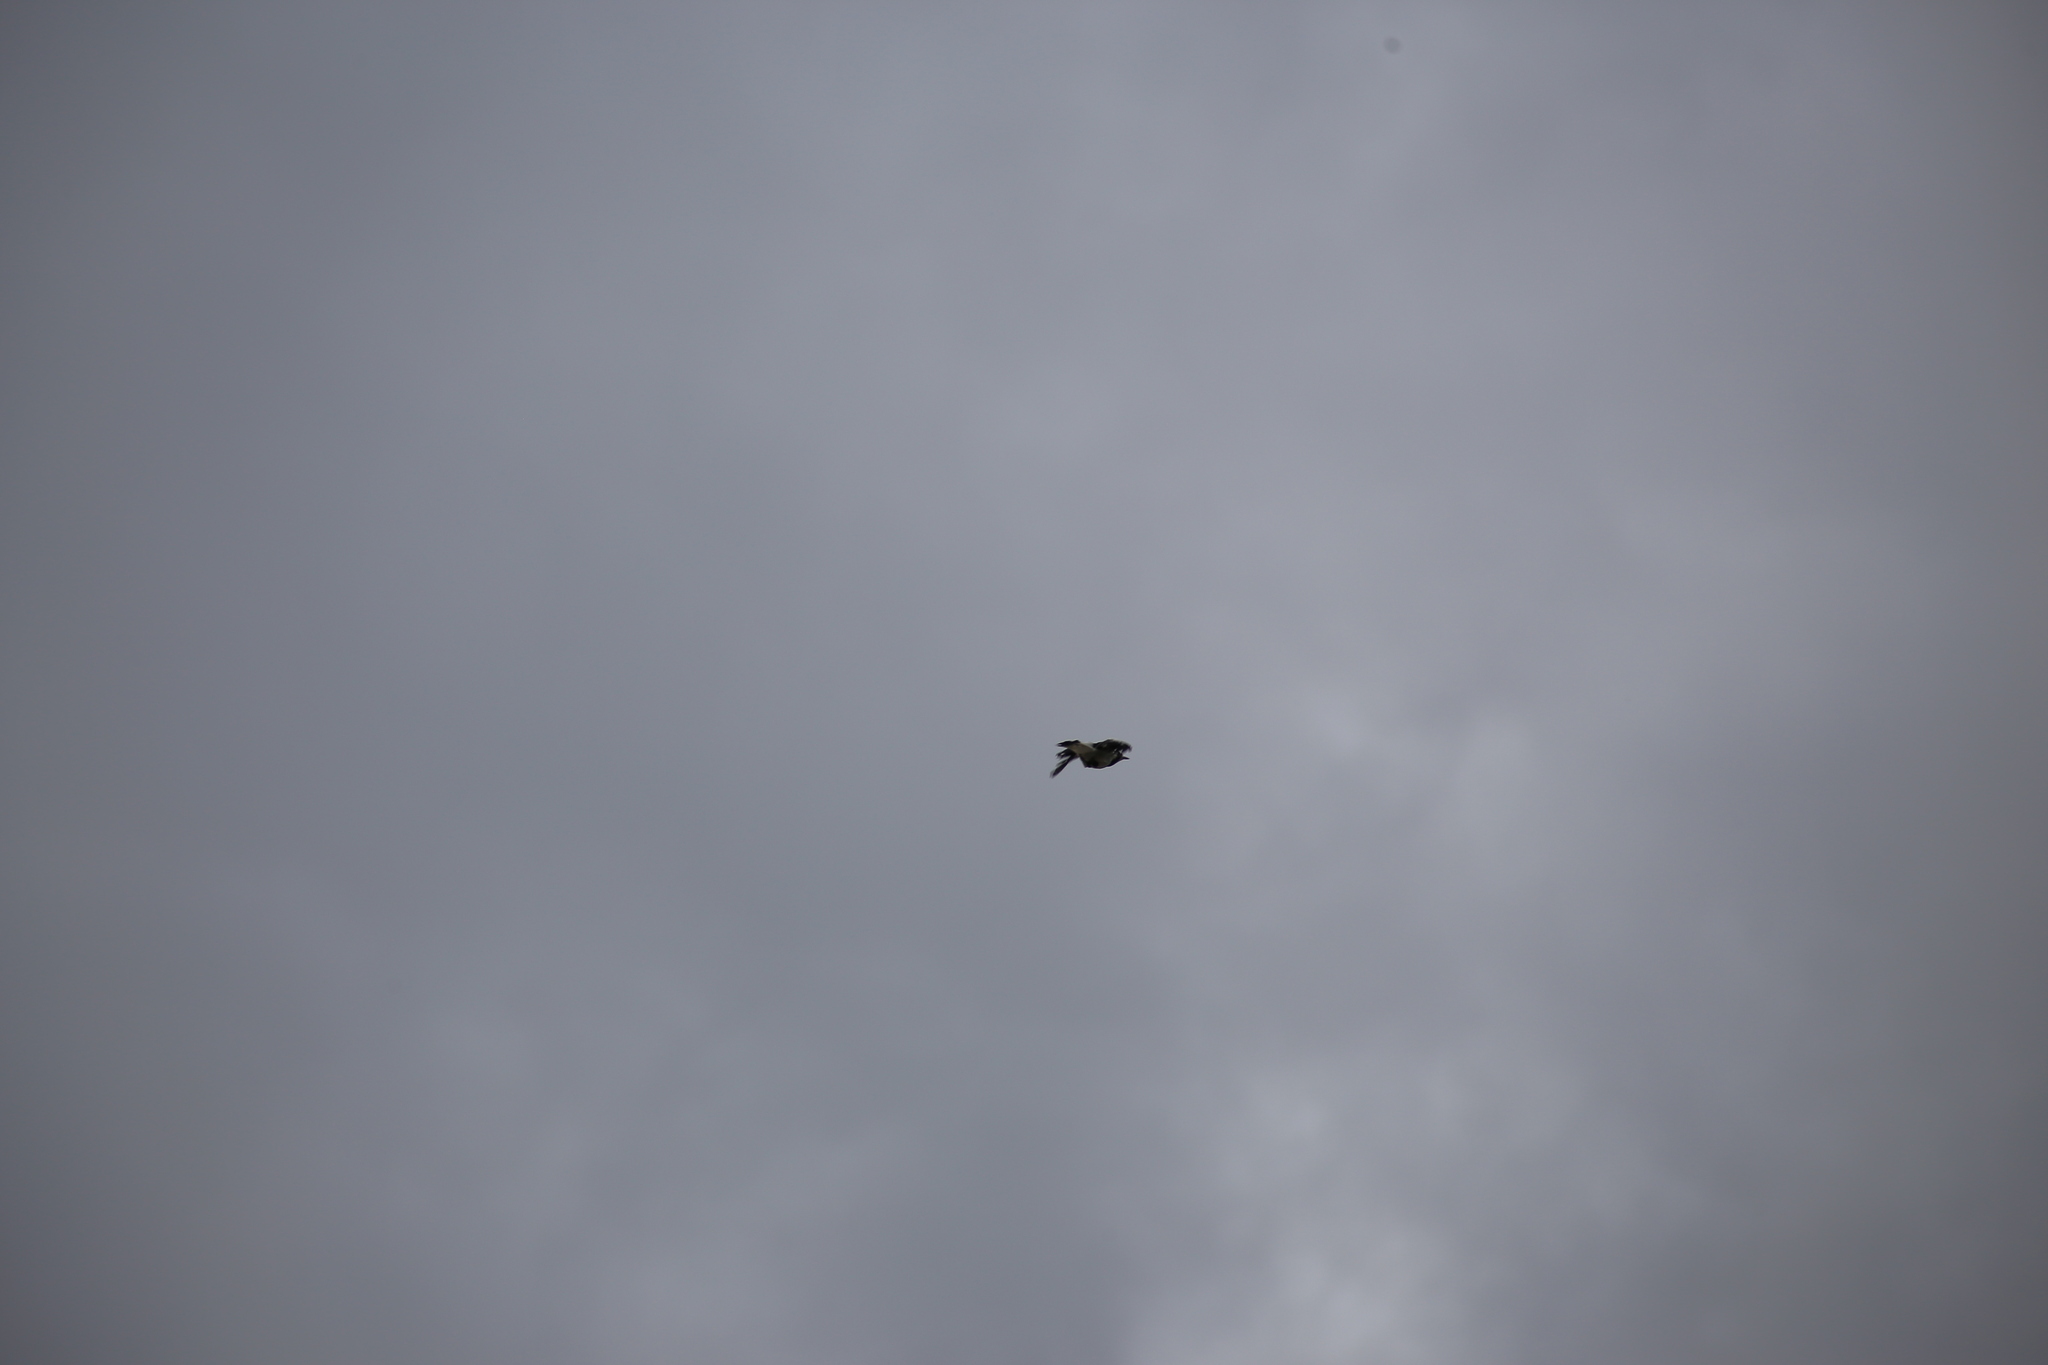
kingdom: Animalia
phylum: Chordata
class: Aves
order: Passeriformes
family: Monarchidae
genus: Grallina
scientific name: Grallina cyanoleuca
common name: Magpie-lark
